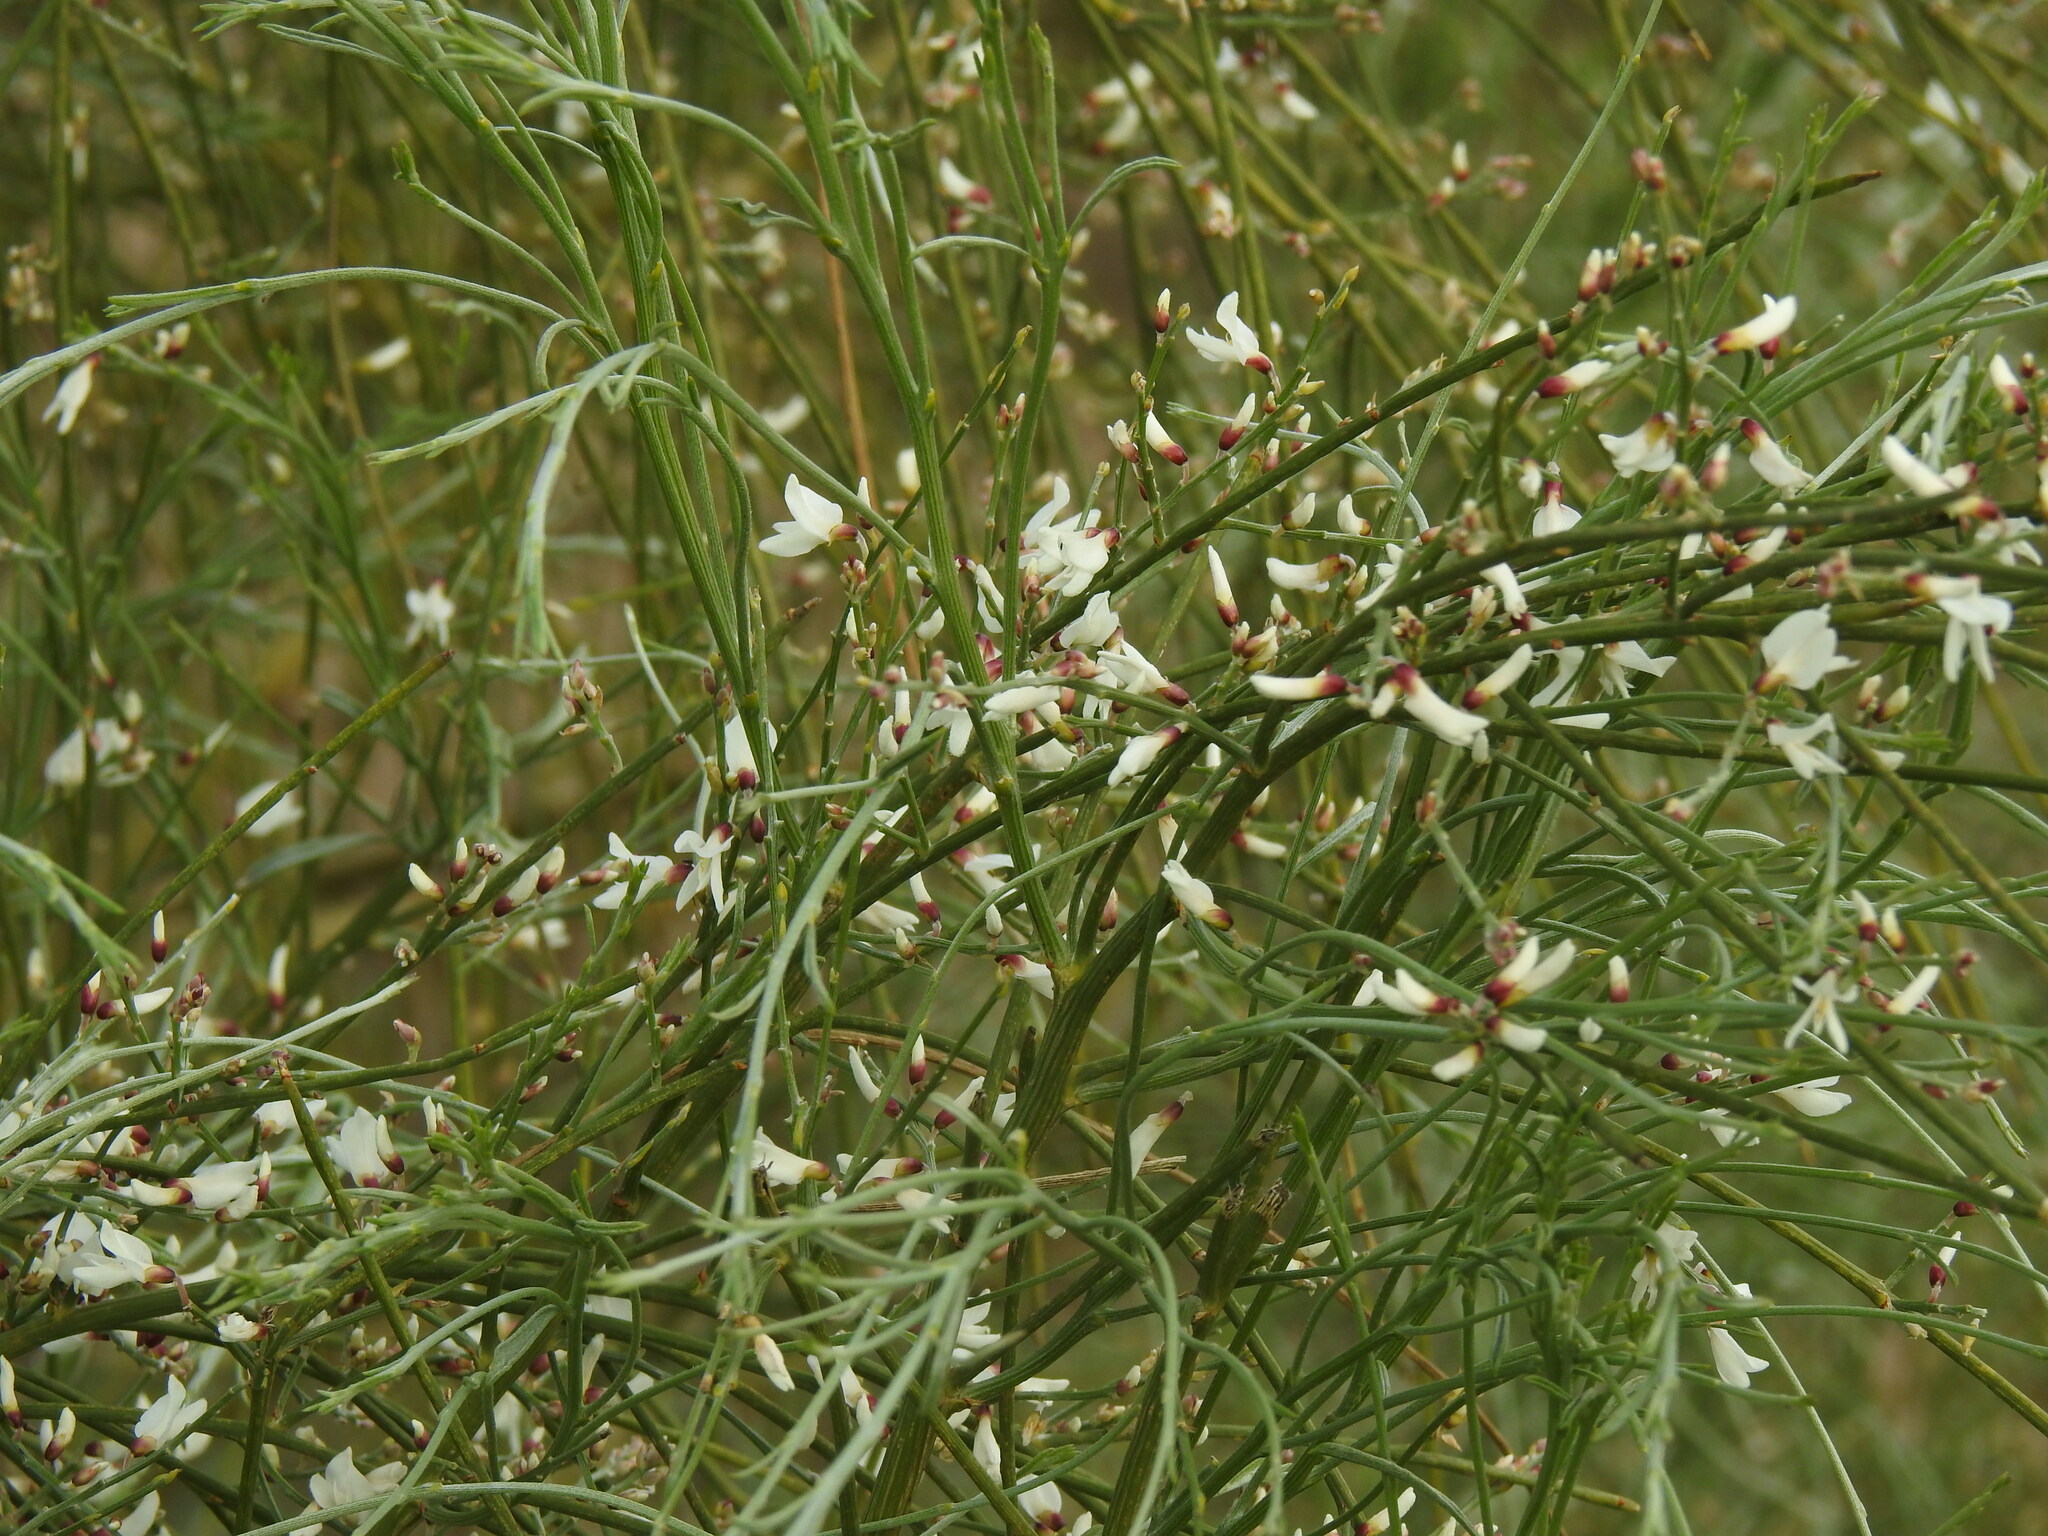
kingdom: Plantae
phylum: Tracheophyta
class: Magnoliopsida
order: Fabales
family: Fabaceae
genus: Retama
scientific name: Retama monosperma
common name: Bridal broom
